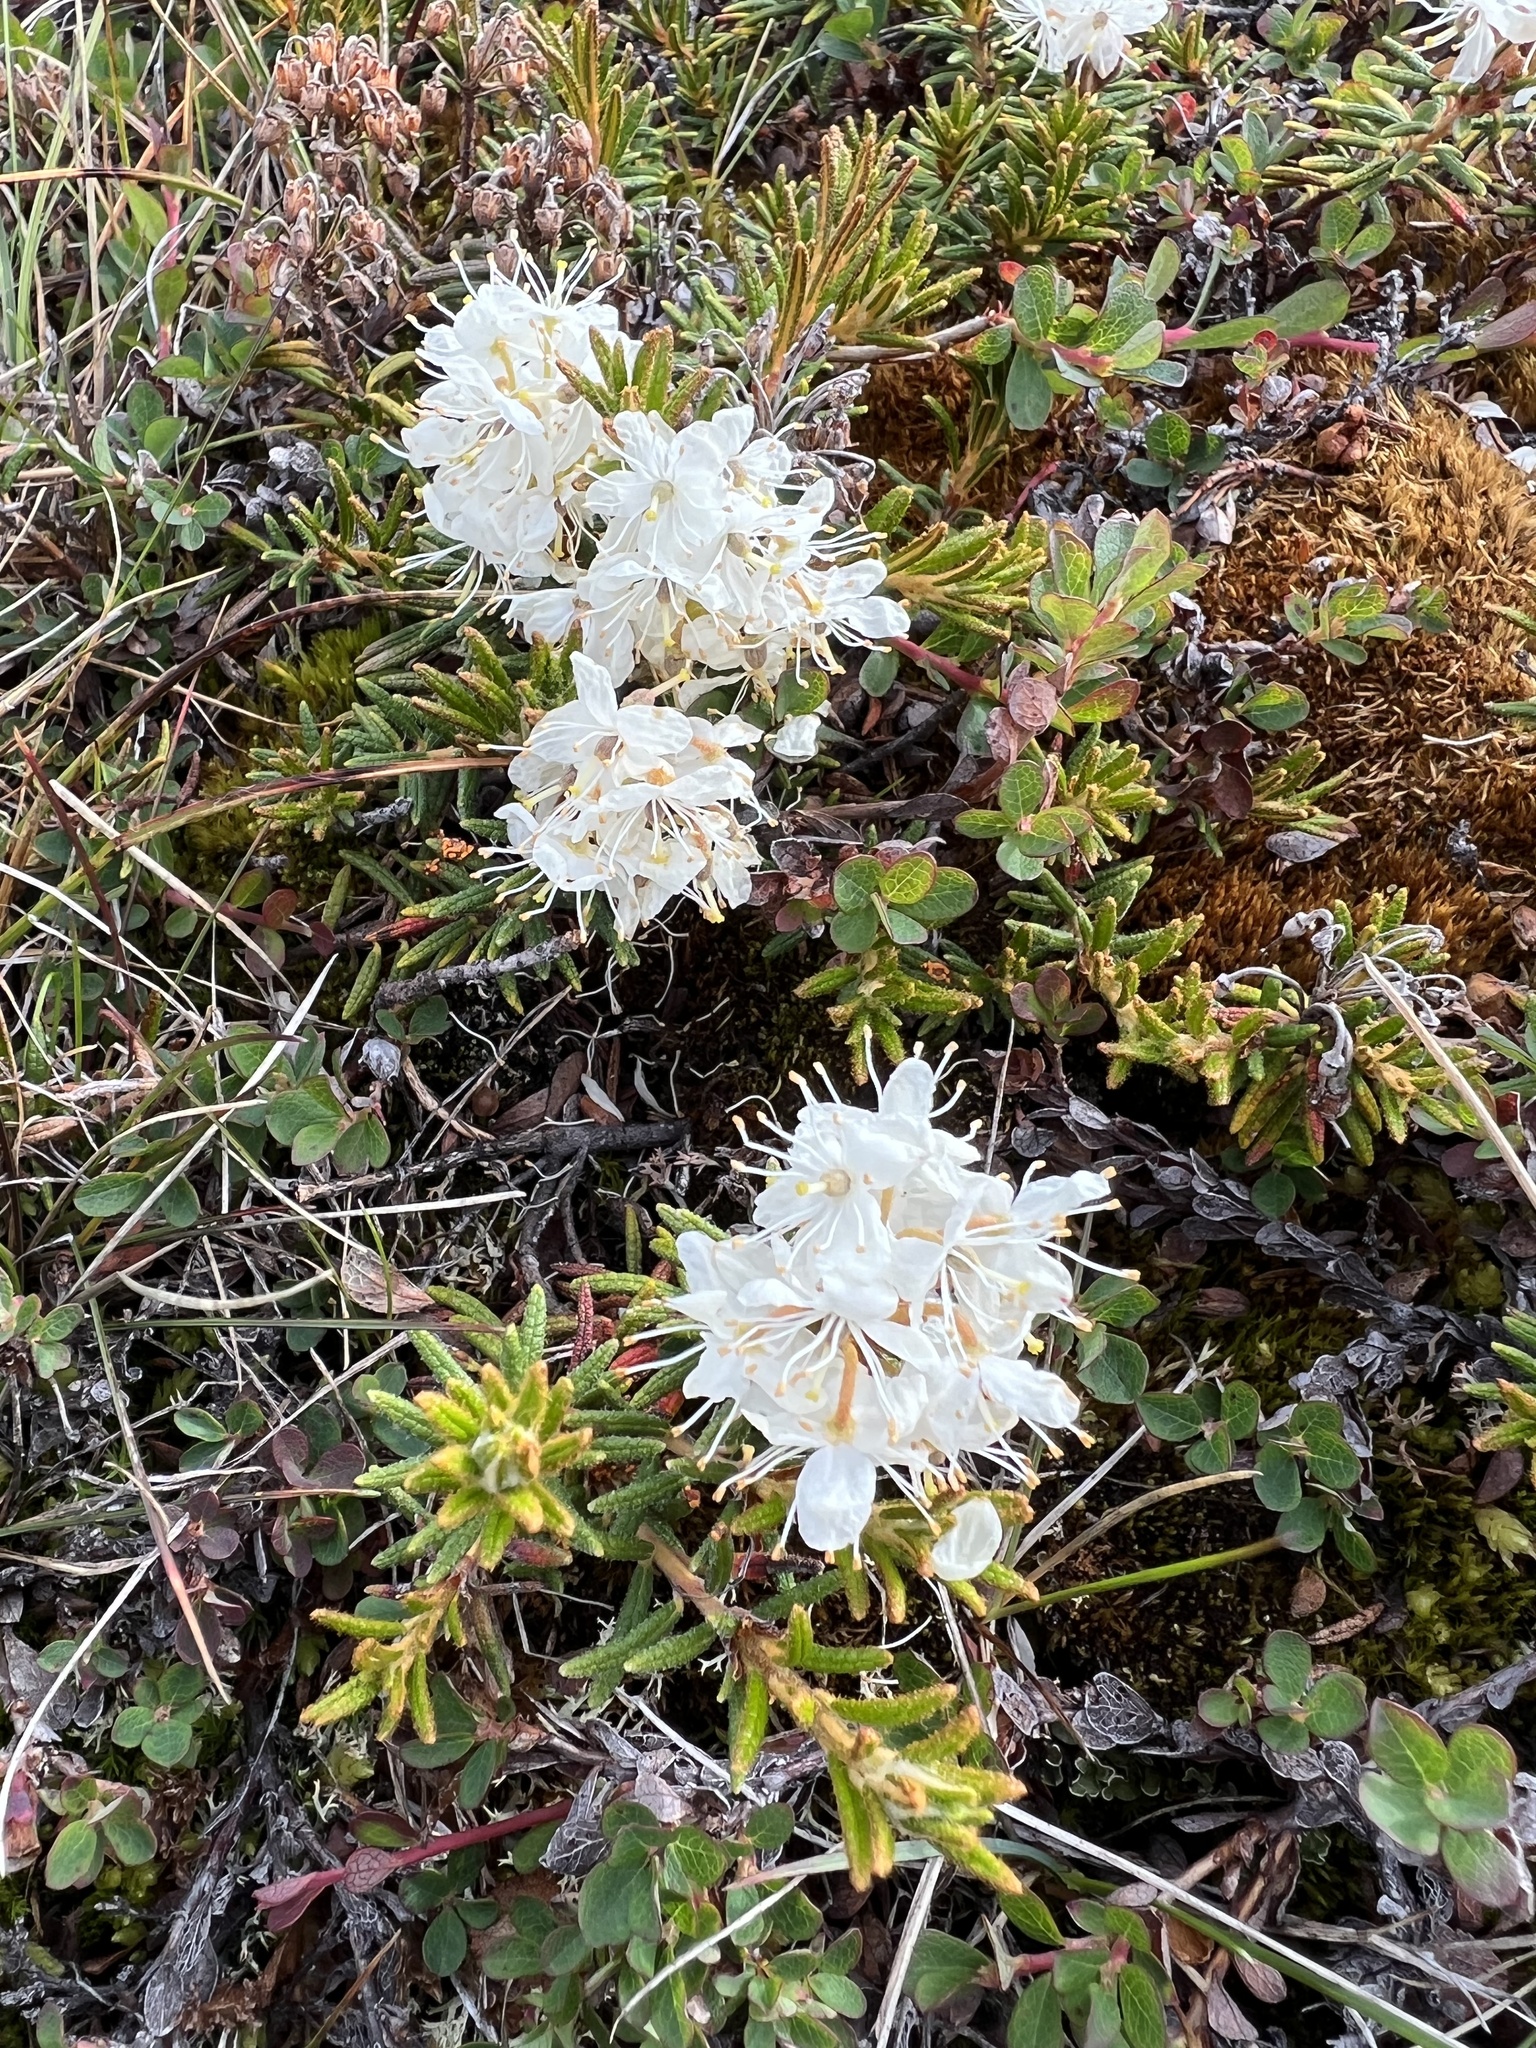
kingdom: Plantae
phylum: Tracheophyta
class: Magnoliopsida
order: Ericales
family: Ericaceae
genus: Rhododendron
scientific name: Rhododendron tomentosum
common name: Marsh labrador tea
